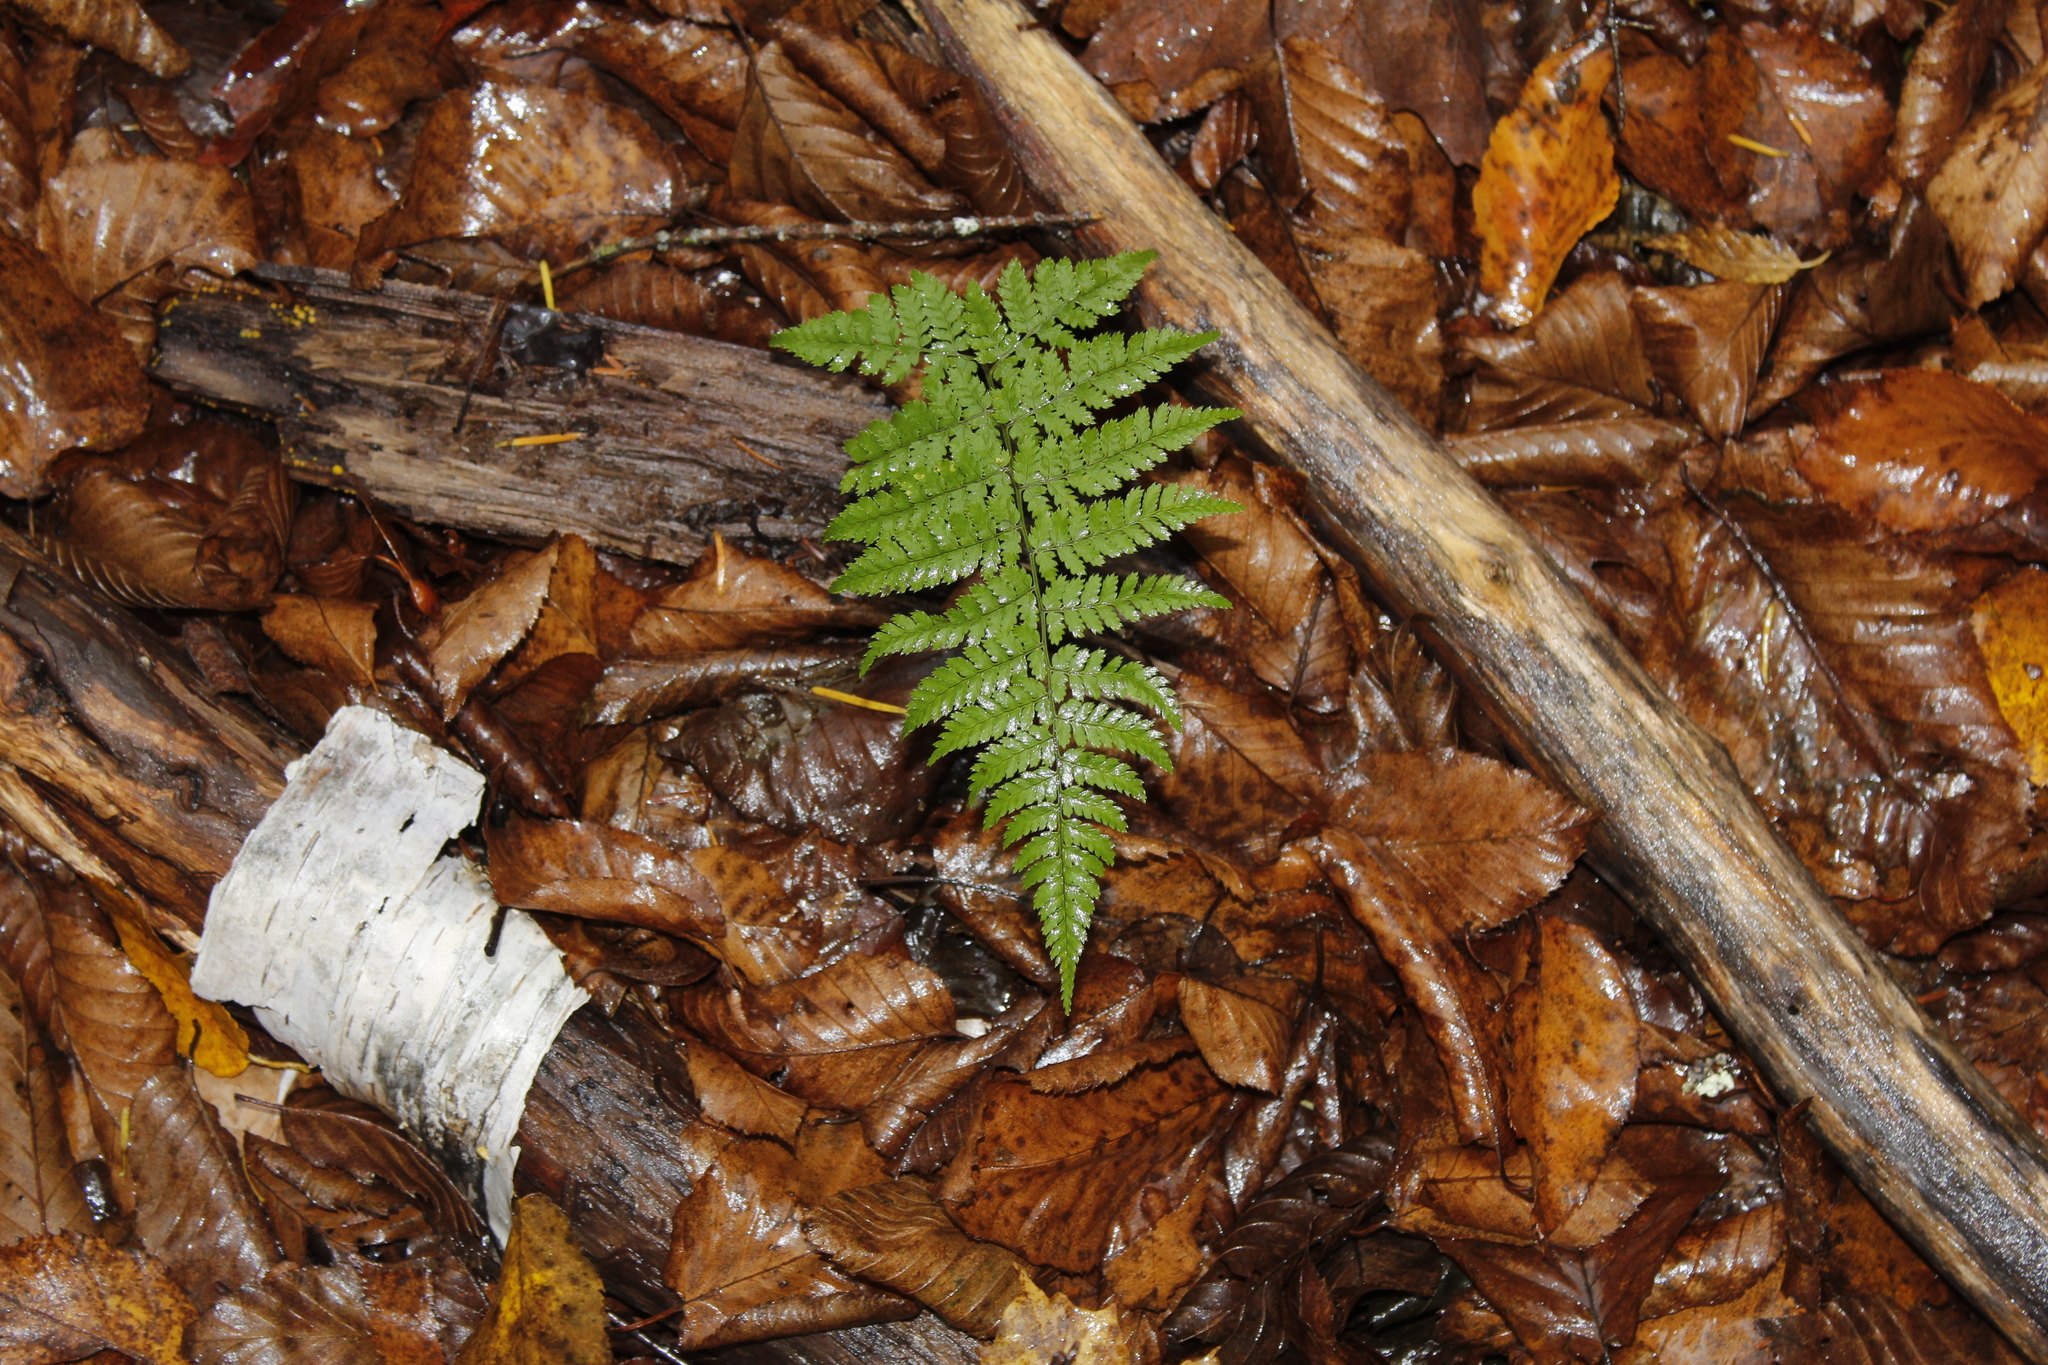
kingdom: Plantae
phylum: Tracheophyta
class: Polypodiopsida
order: Polypodiales
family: Dryopteridaceae
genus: Dryopteris
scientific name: Dryopteris intermedia
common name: Evergreen wood fern
